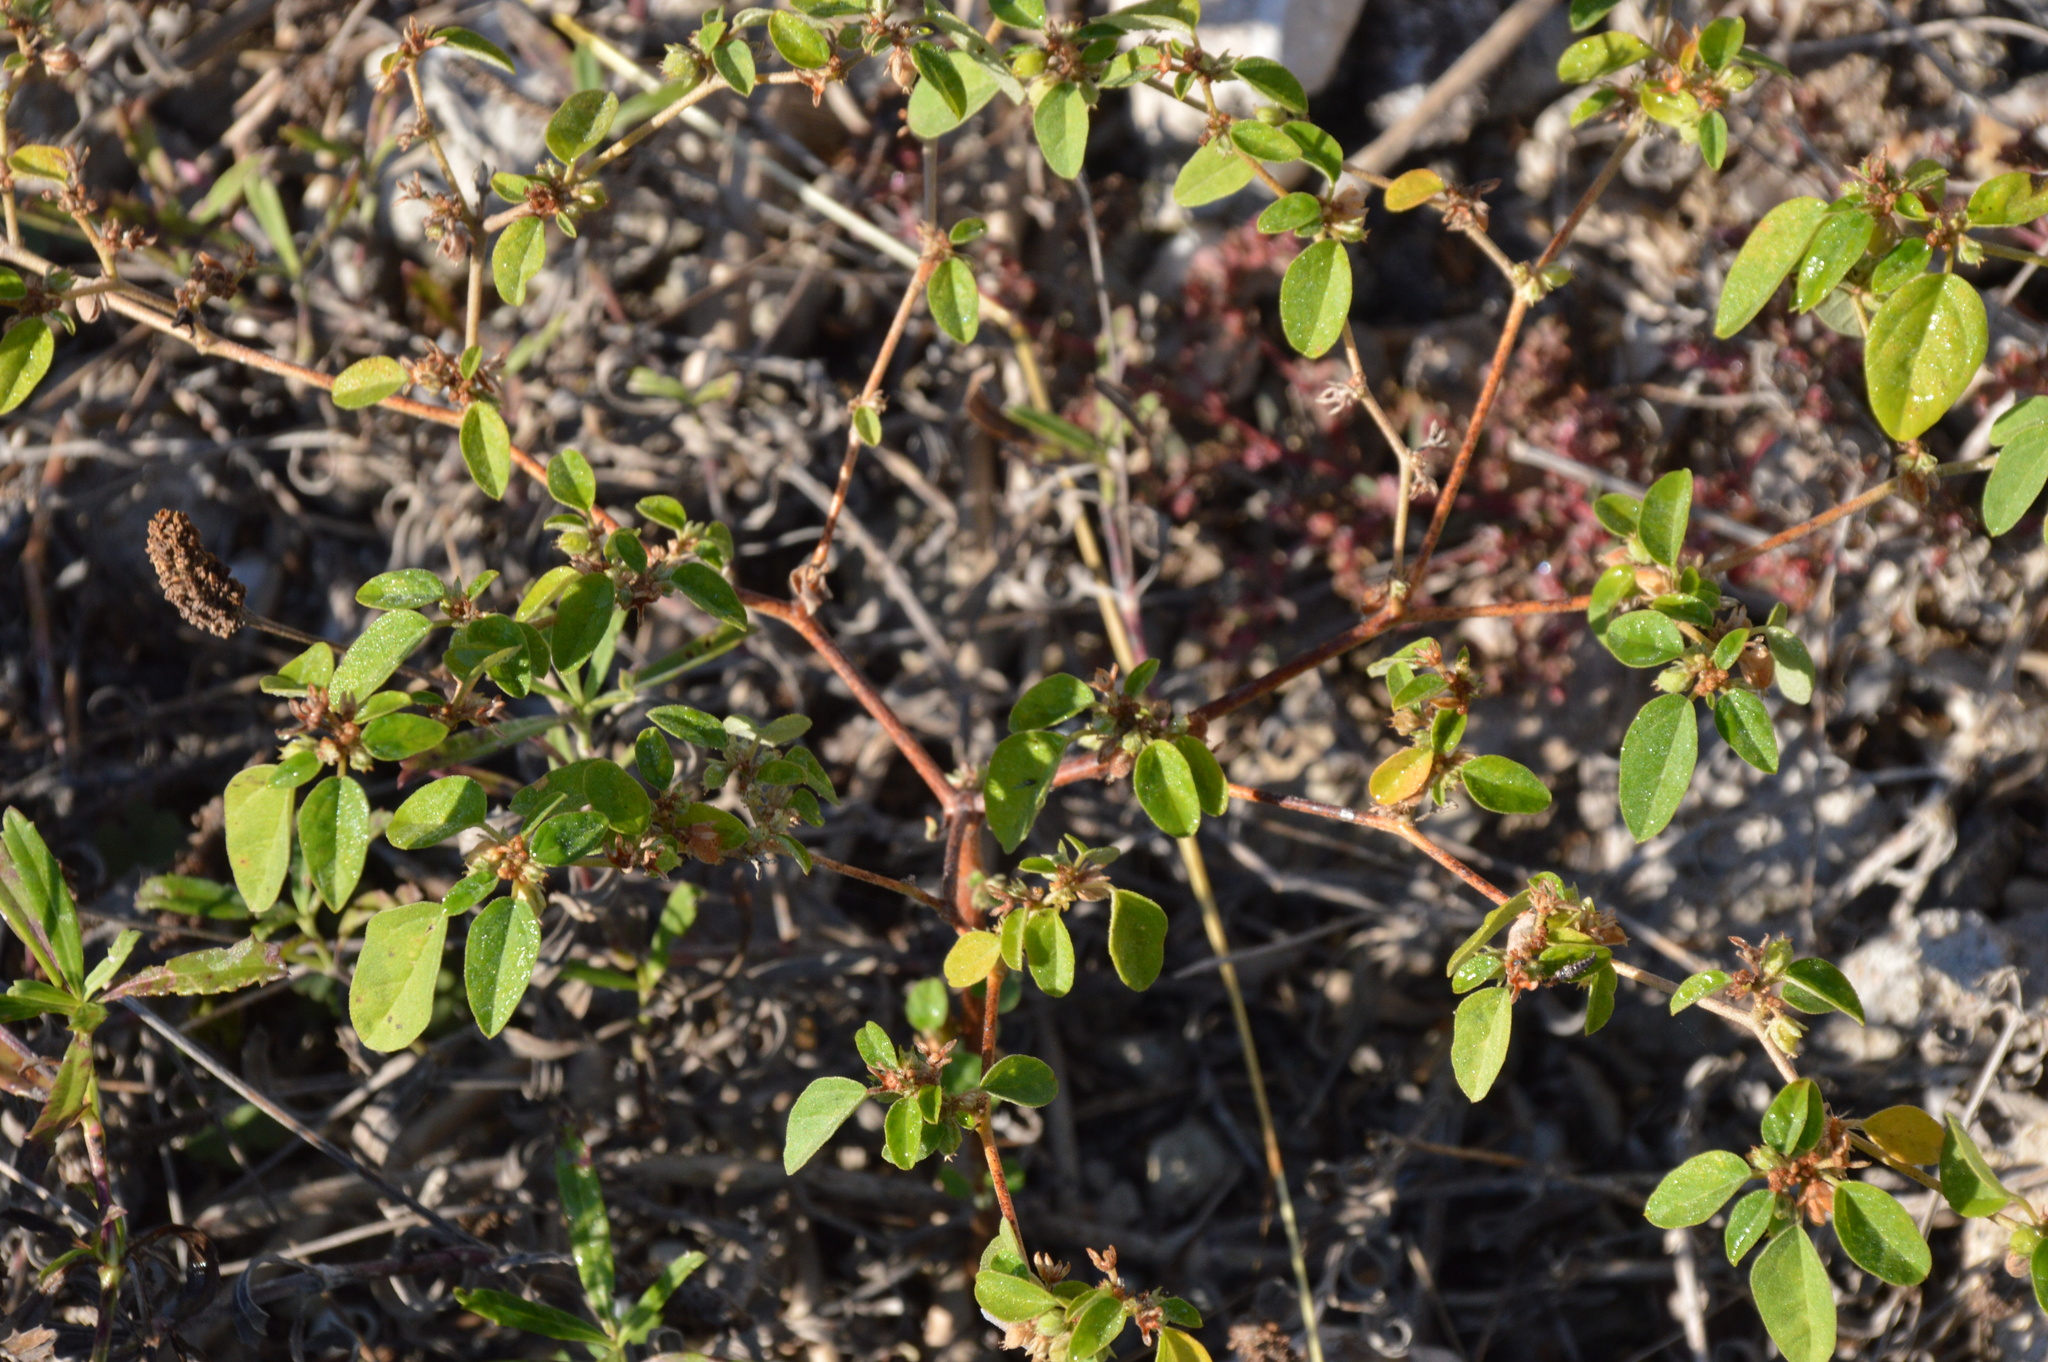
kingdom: Plantae
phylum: Tracheophyta
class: Magnoliopsida
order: Malpighiales
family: Euphorbiaceae
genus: Croton
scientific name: Croton monanthogynus
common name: One-seed croton
